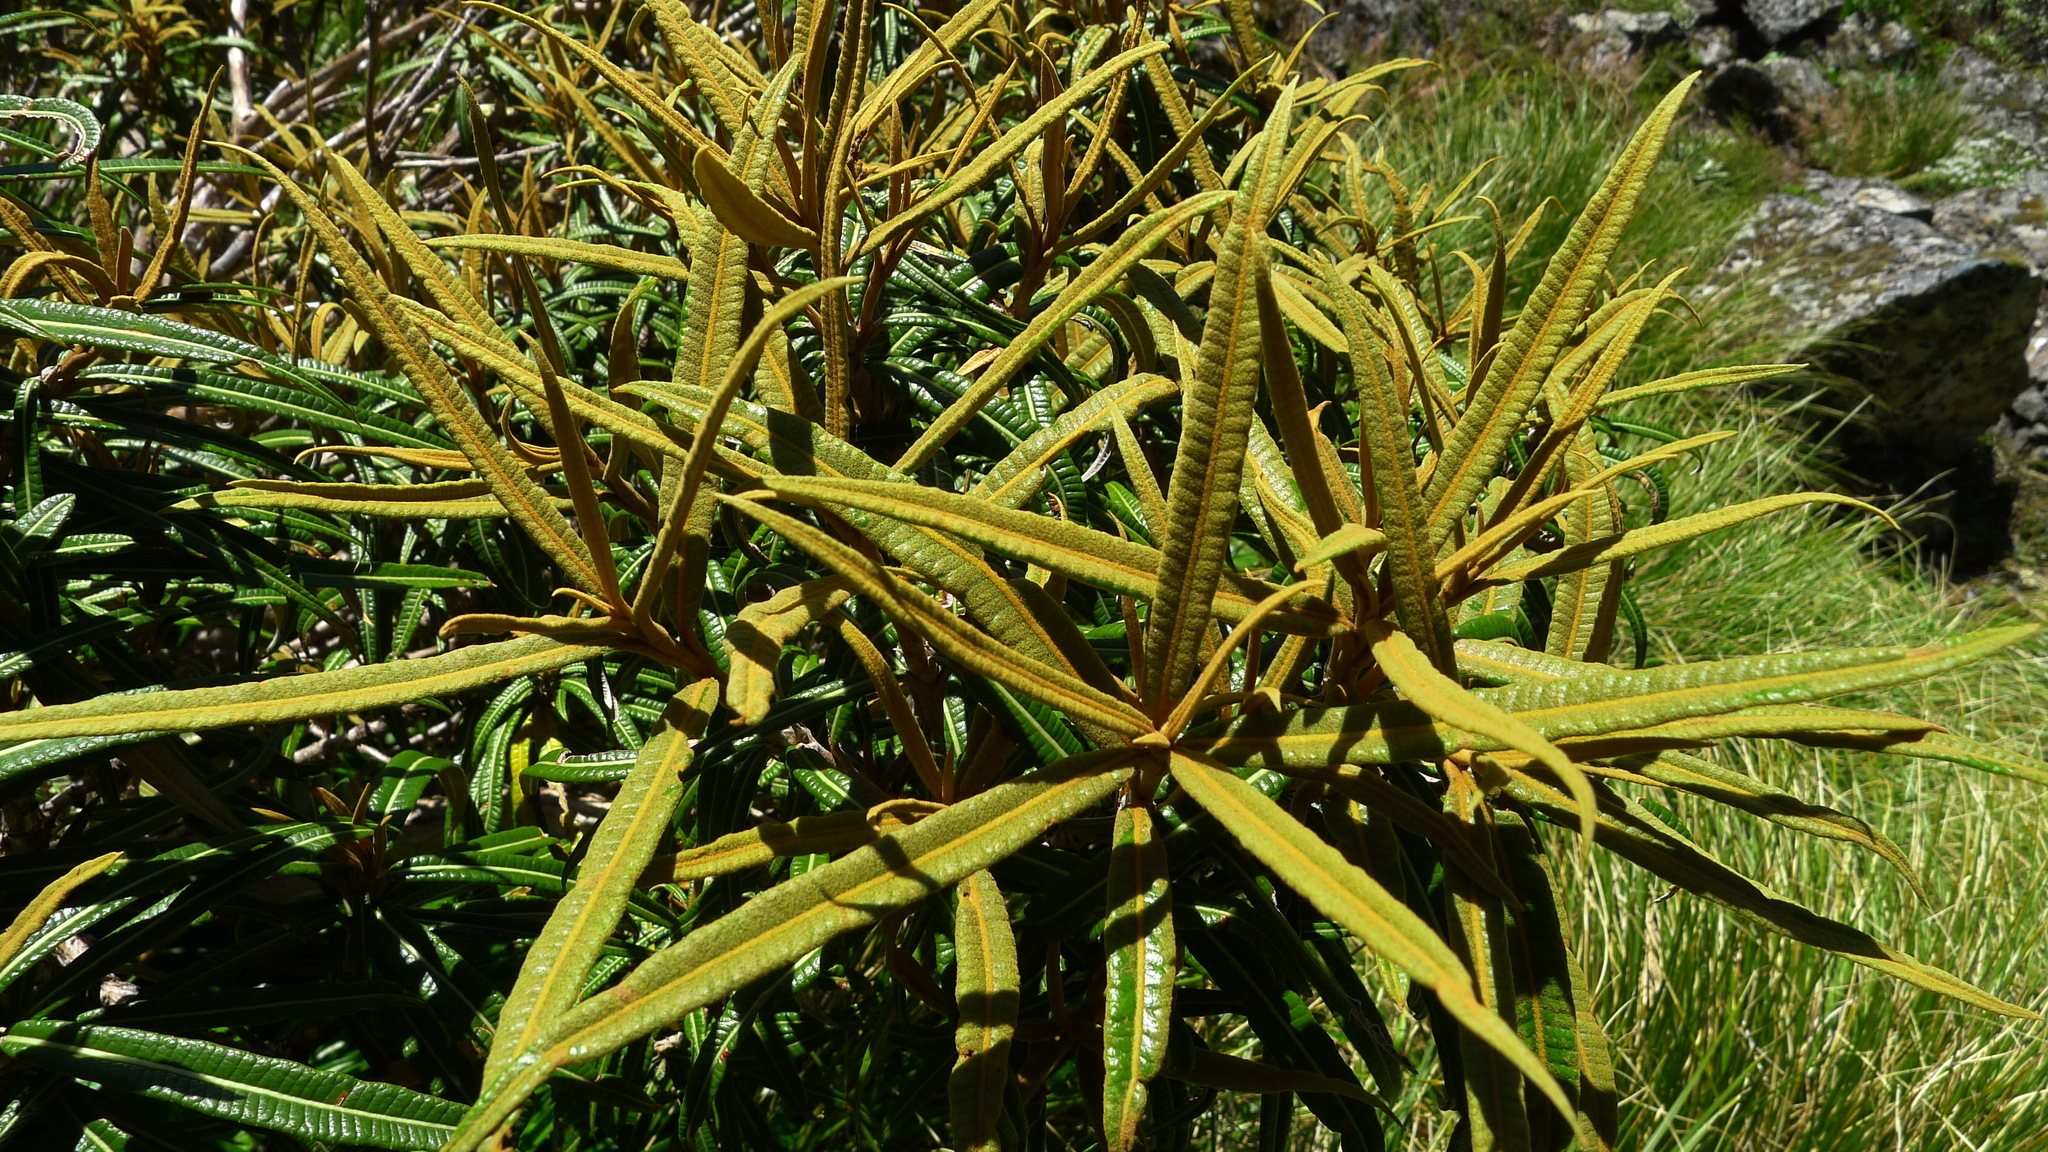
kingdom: Plantae
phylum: Tracheophyta
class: Magnoliopsida
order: Asterales
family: Asteraceae
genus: Olearia
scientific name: Olearia lacunosa
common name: Lancewood tree daisy
